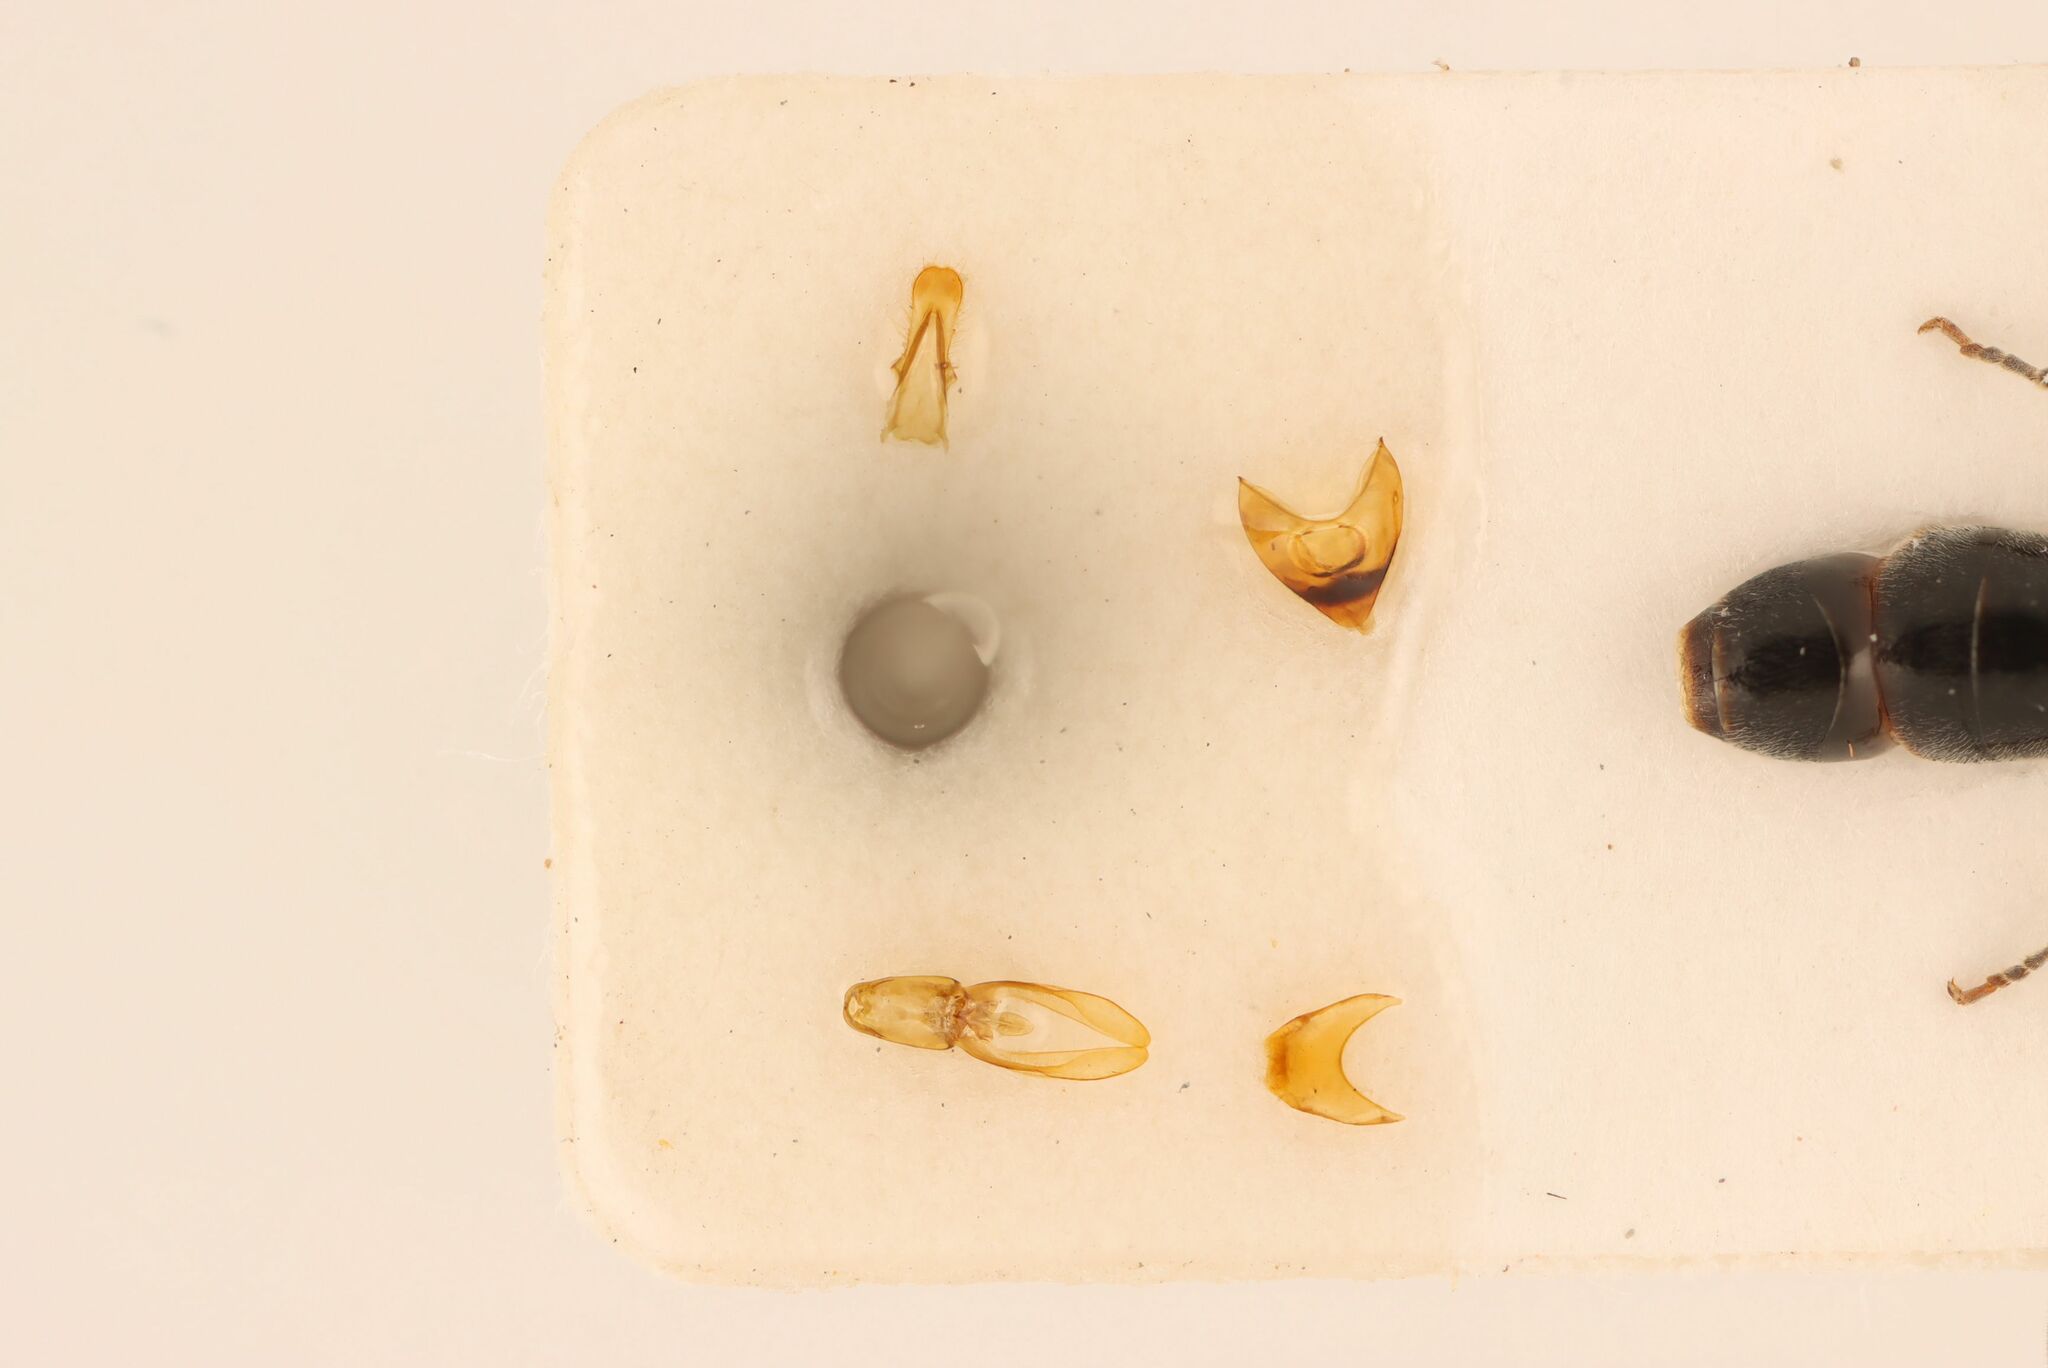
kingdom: Animalia
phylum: Arthropoda
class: Insecta
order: Hymenoptera
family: Crabronidae
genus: Rhopalum
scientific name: Rhopalum coarctatum
